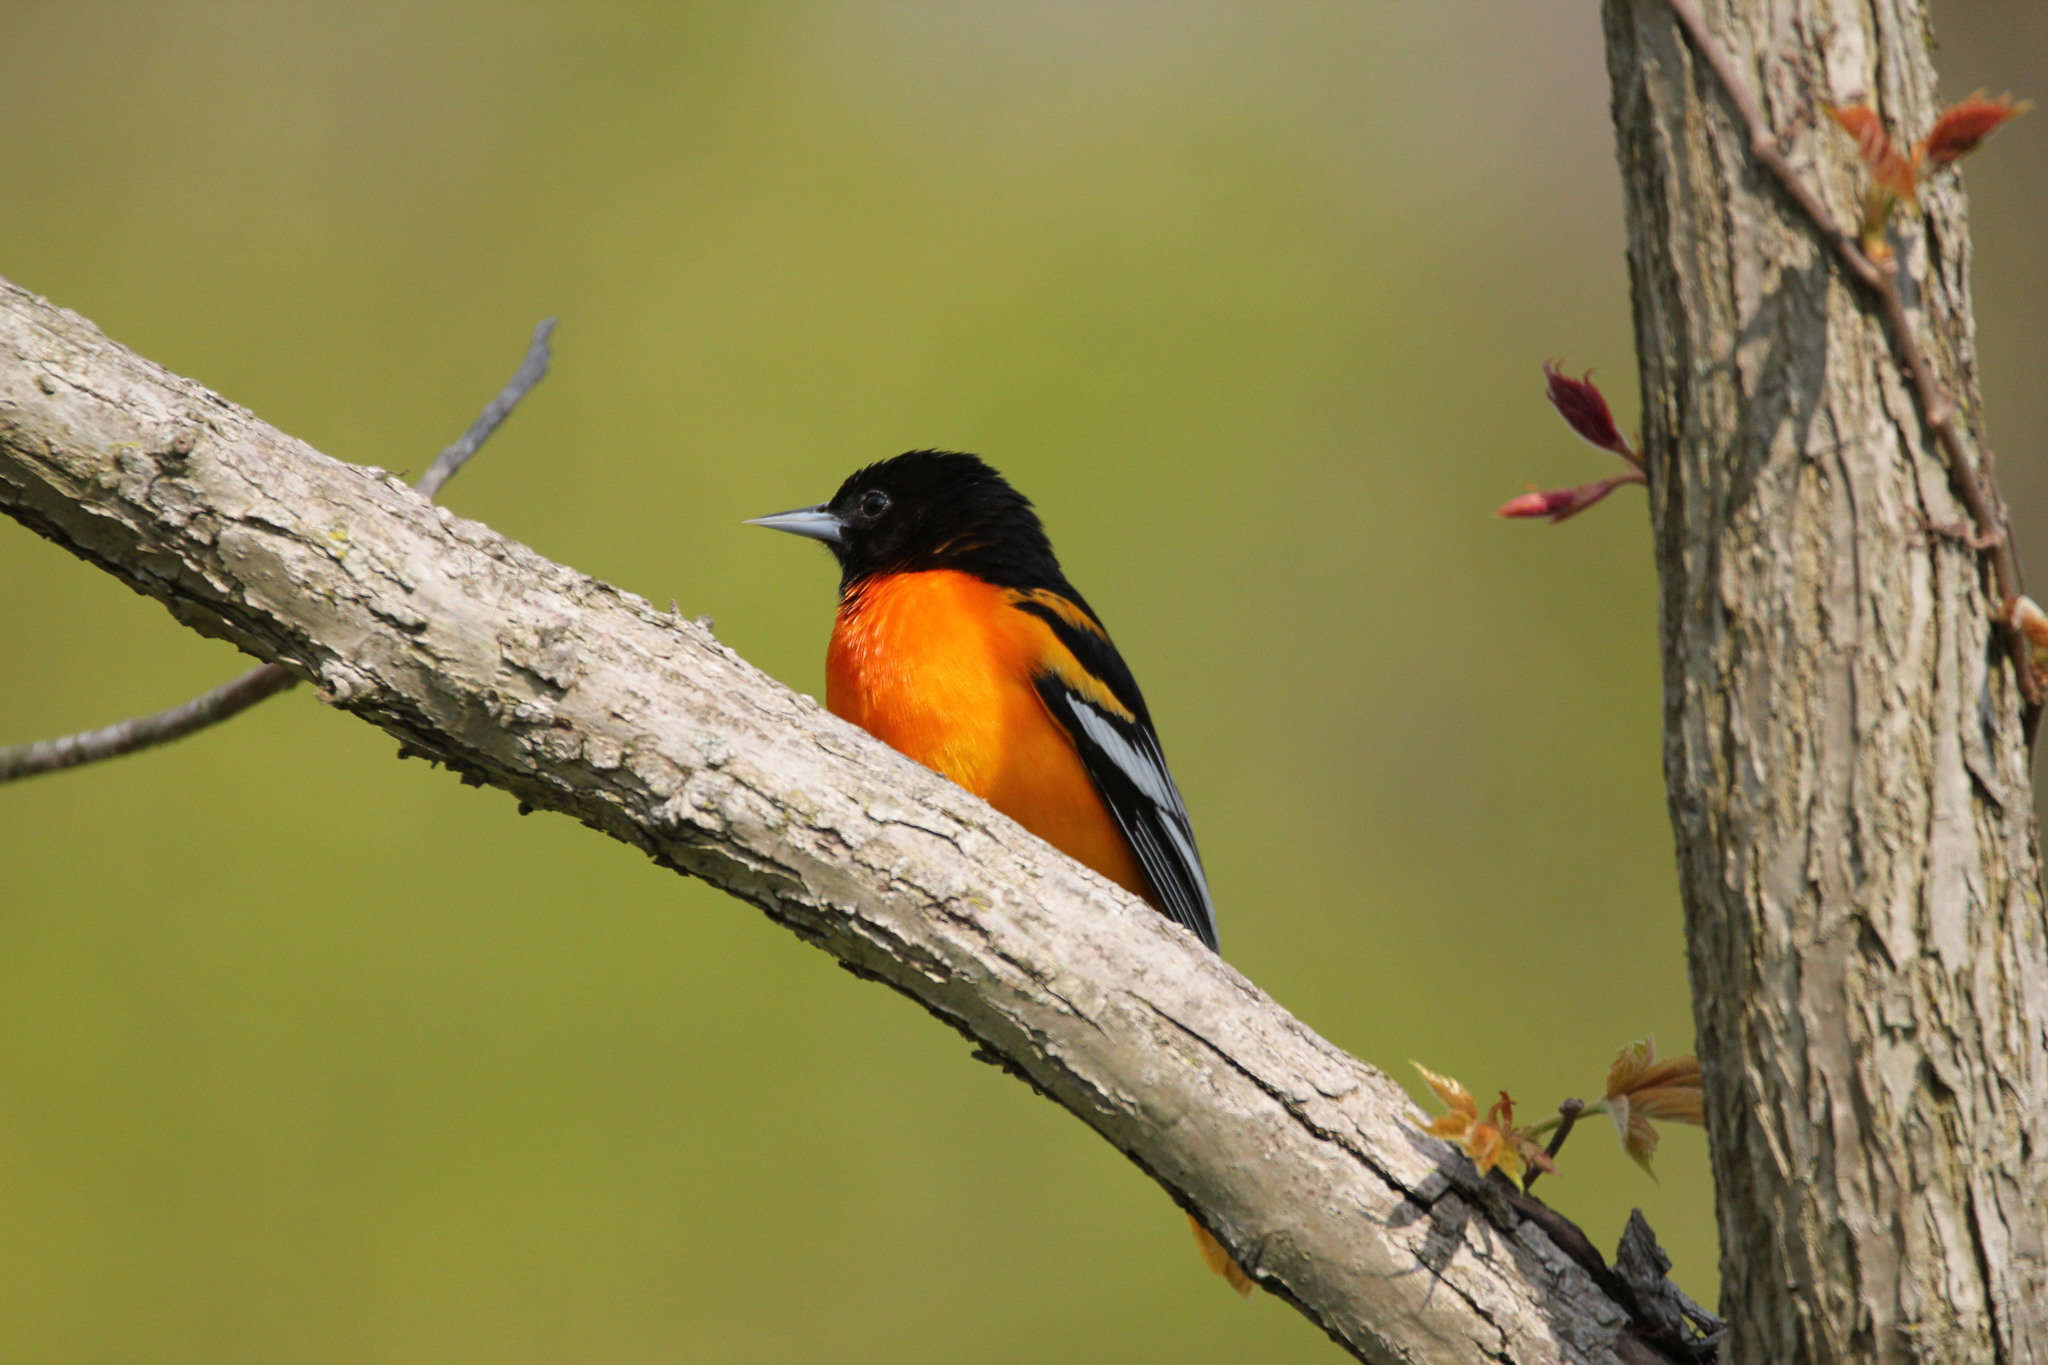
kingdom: Animalia
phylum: Chordata
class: Aves
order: Passeriformes
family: Icteridae
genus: Icterus
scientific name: Icterus galbula
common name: Baltimore oriole
